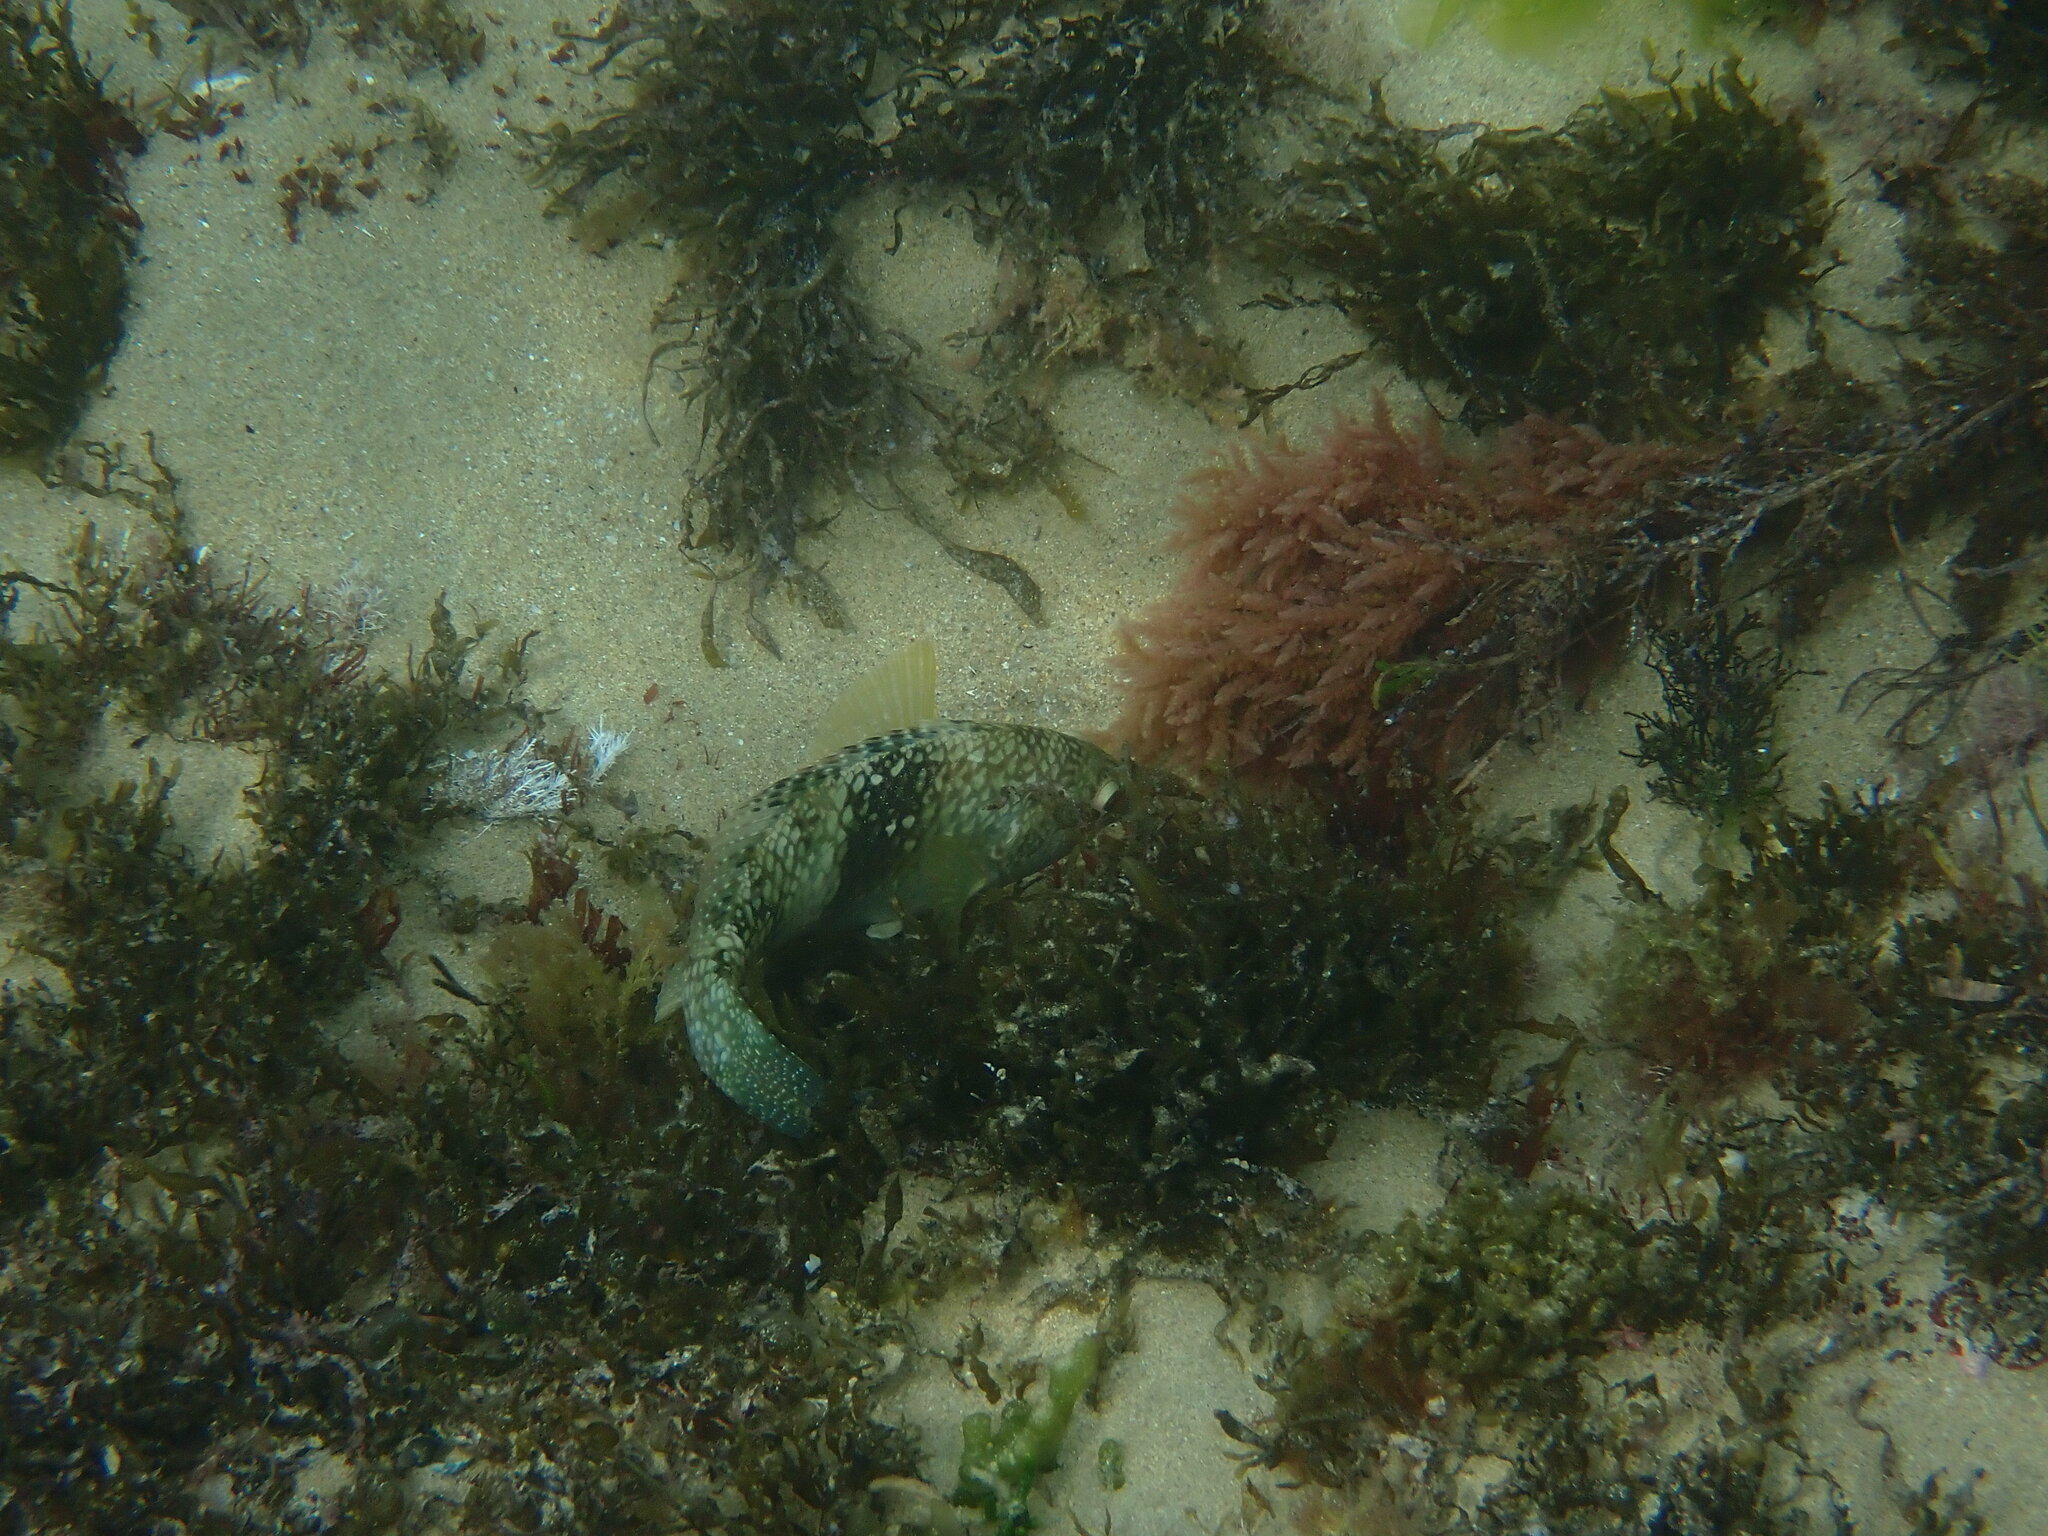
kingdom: Animalia
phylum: Chordata
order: Perciformes
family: Labridae
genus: Notolabrus
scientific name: Notolabrus tetricus
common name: Blue-throated parrotfish
